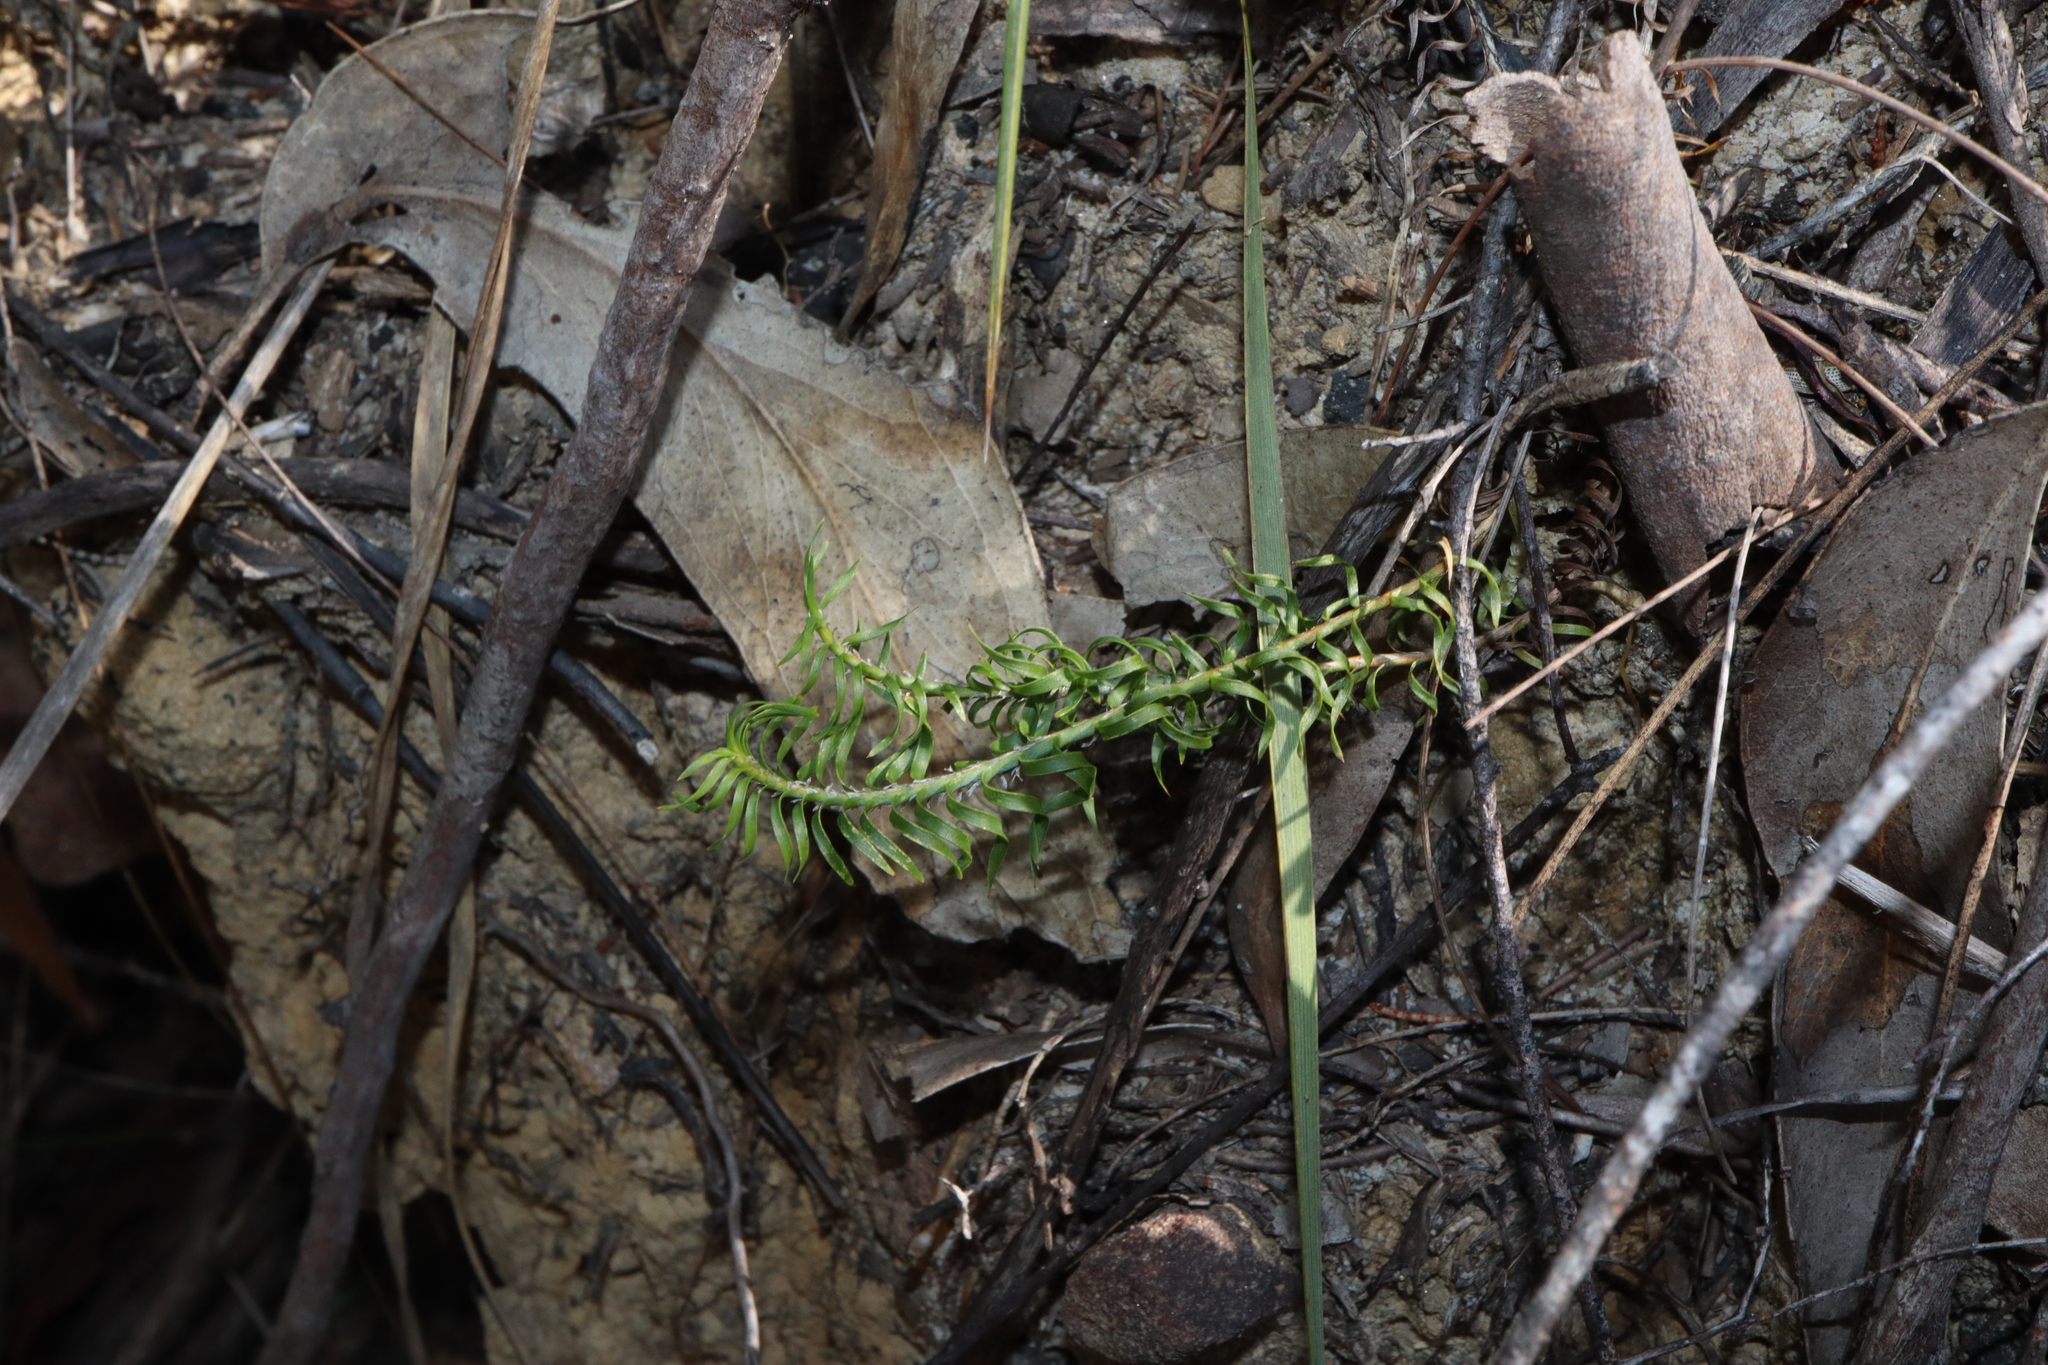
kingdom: Plantae
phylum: Tracheophyta
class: Liliopsida
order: Asparagales
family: Asparagaceae
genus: Lomandra
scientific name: Lomandra obliqua
